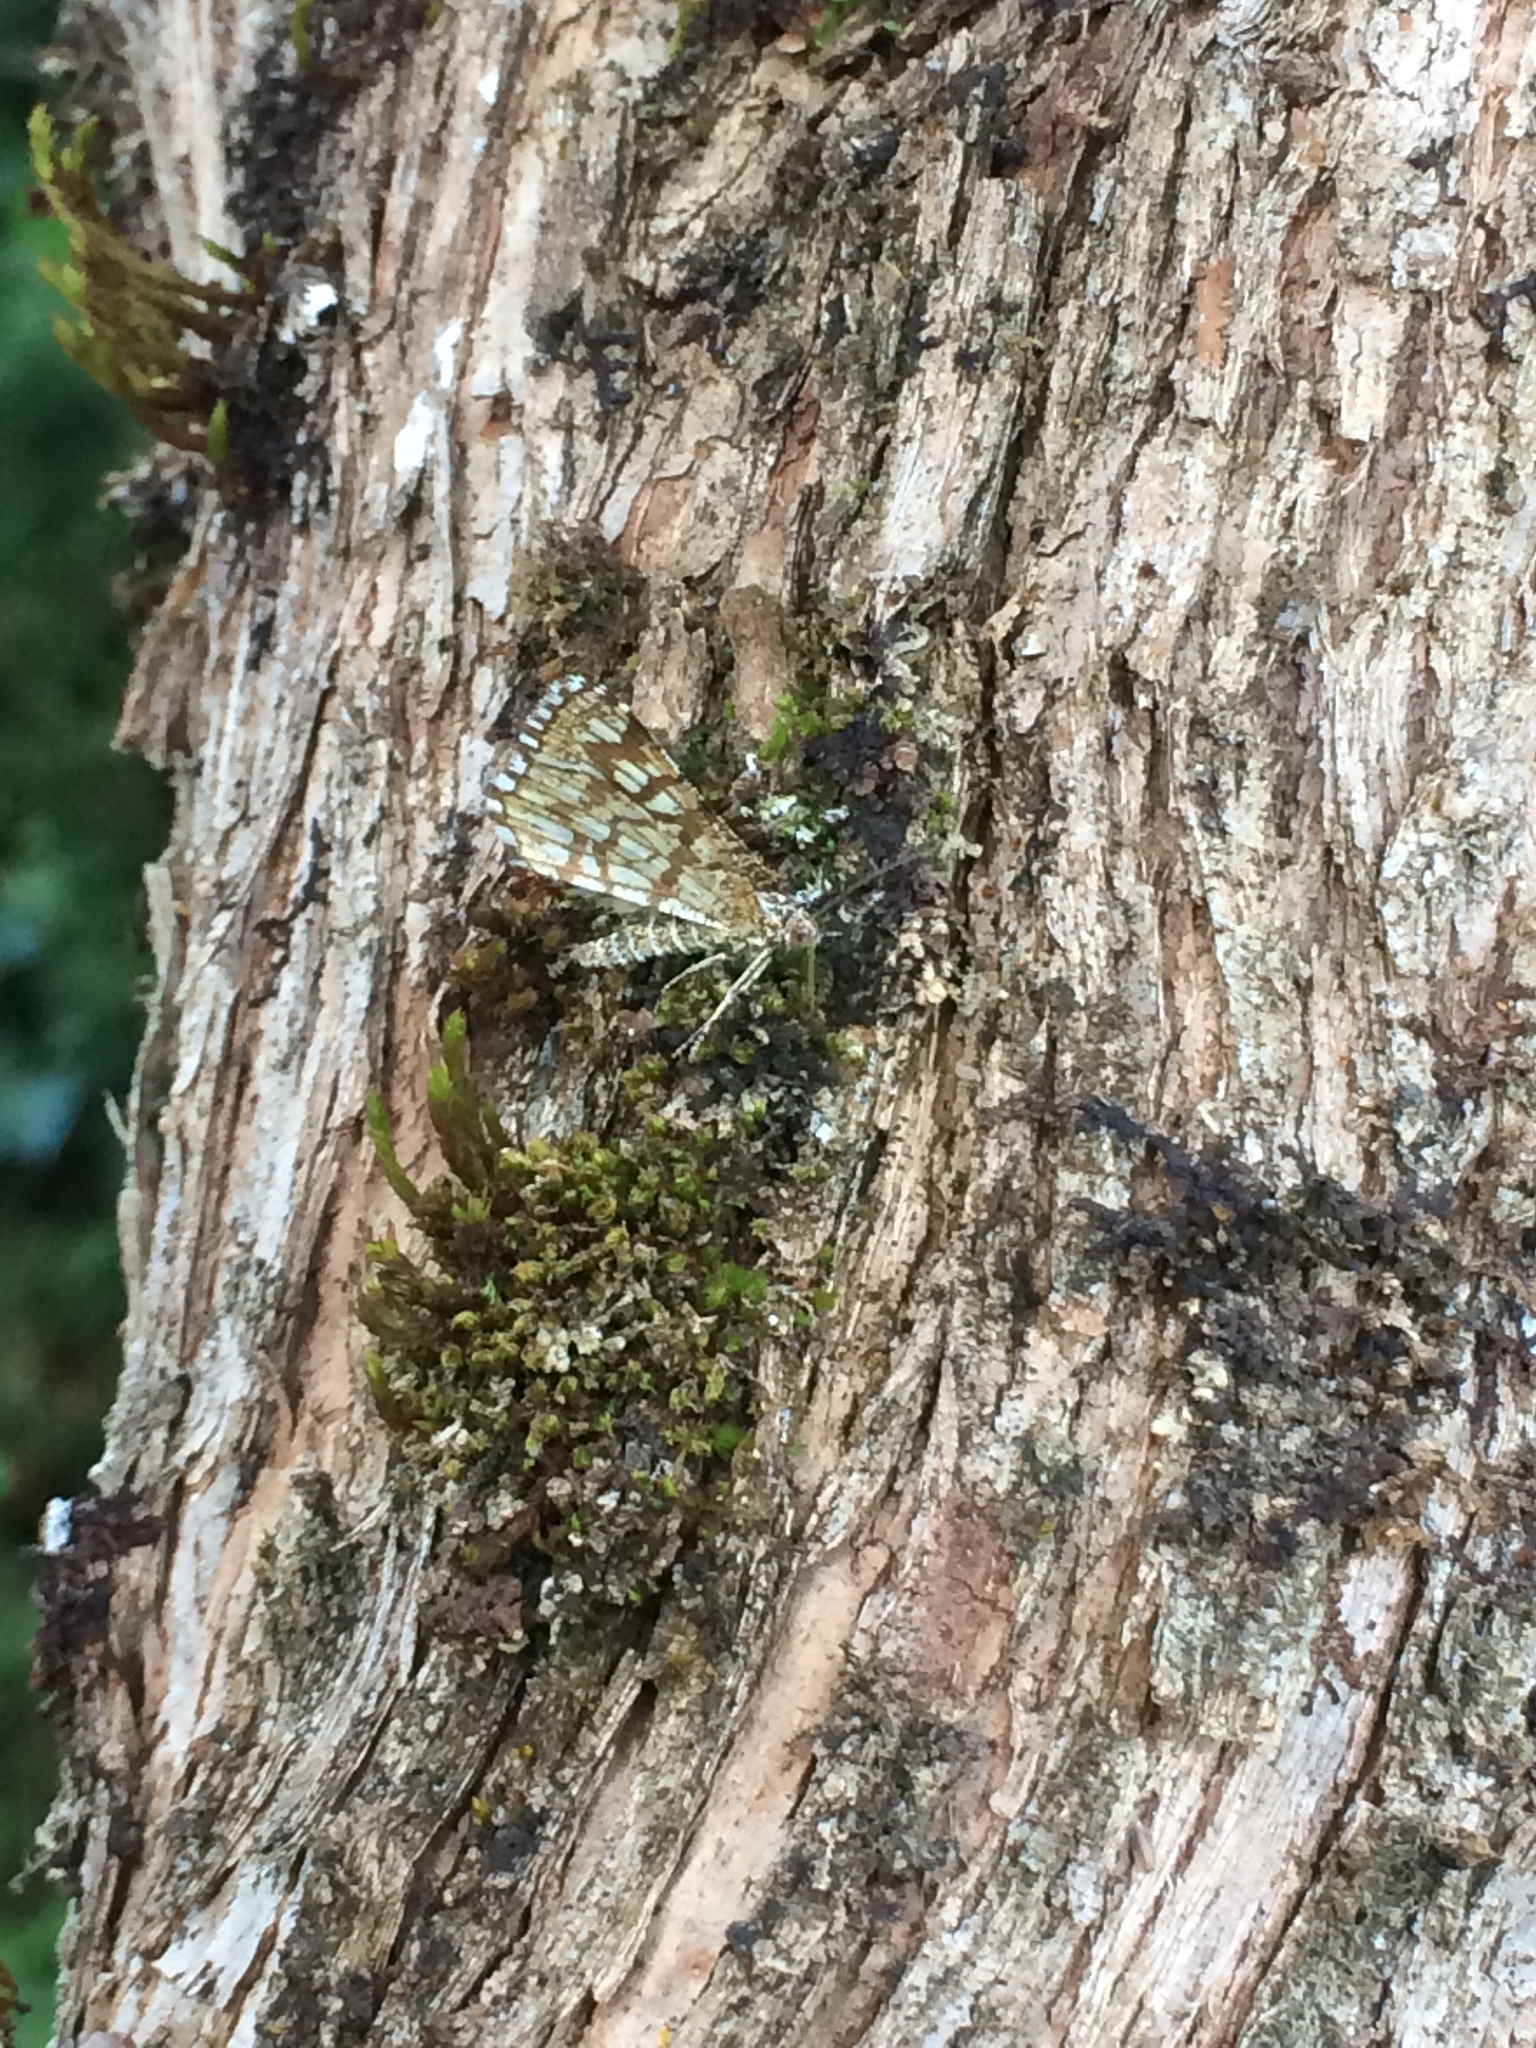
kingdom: Animalia
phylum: Arthropoda
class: Insecta
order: Lepidoptera
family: Geometridae
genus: Chiasmia
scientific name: Chiasmia clathrata
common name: Latticed heath
